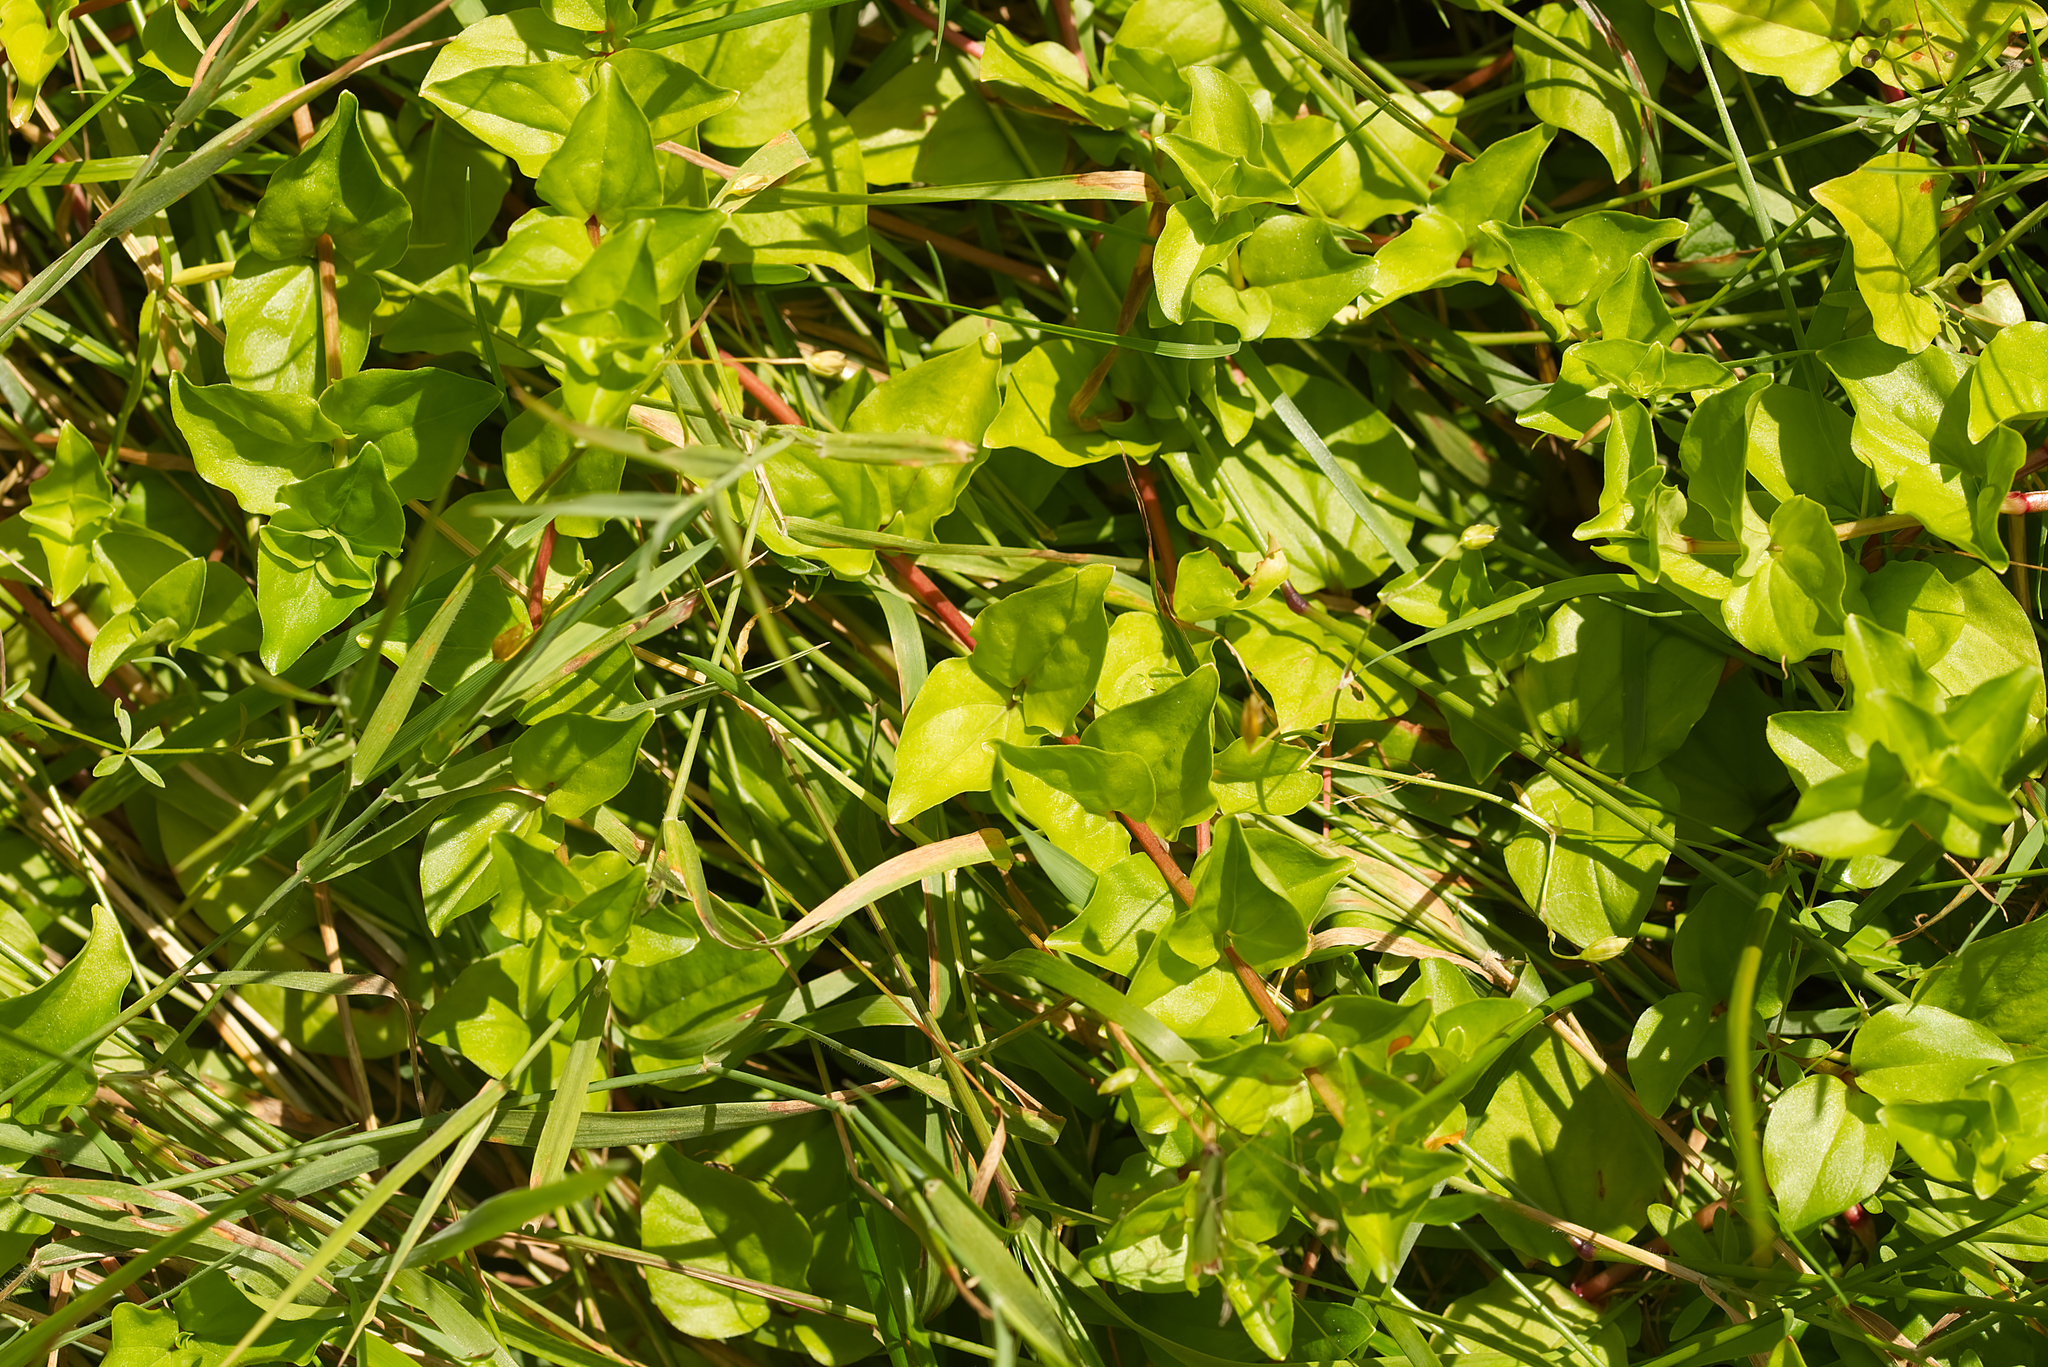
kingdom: Plantae
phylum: Tracheophyta
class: Magnoliopsida
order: Ericales
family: Primulaceae
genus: Lysimachia
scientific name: Lysimachia nemorum
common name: Yellow pimpernel
